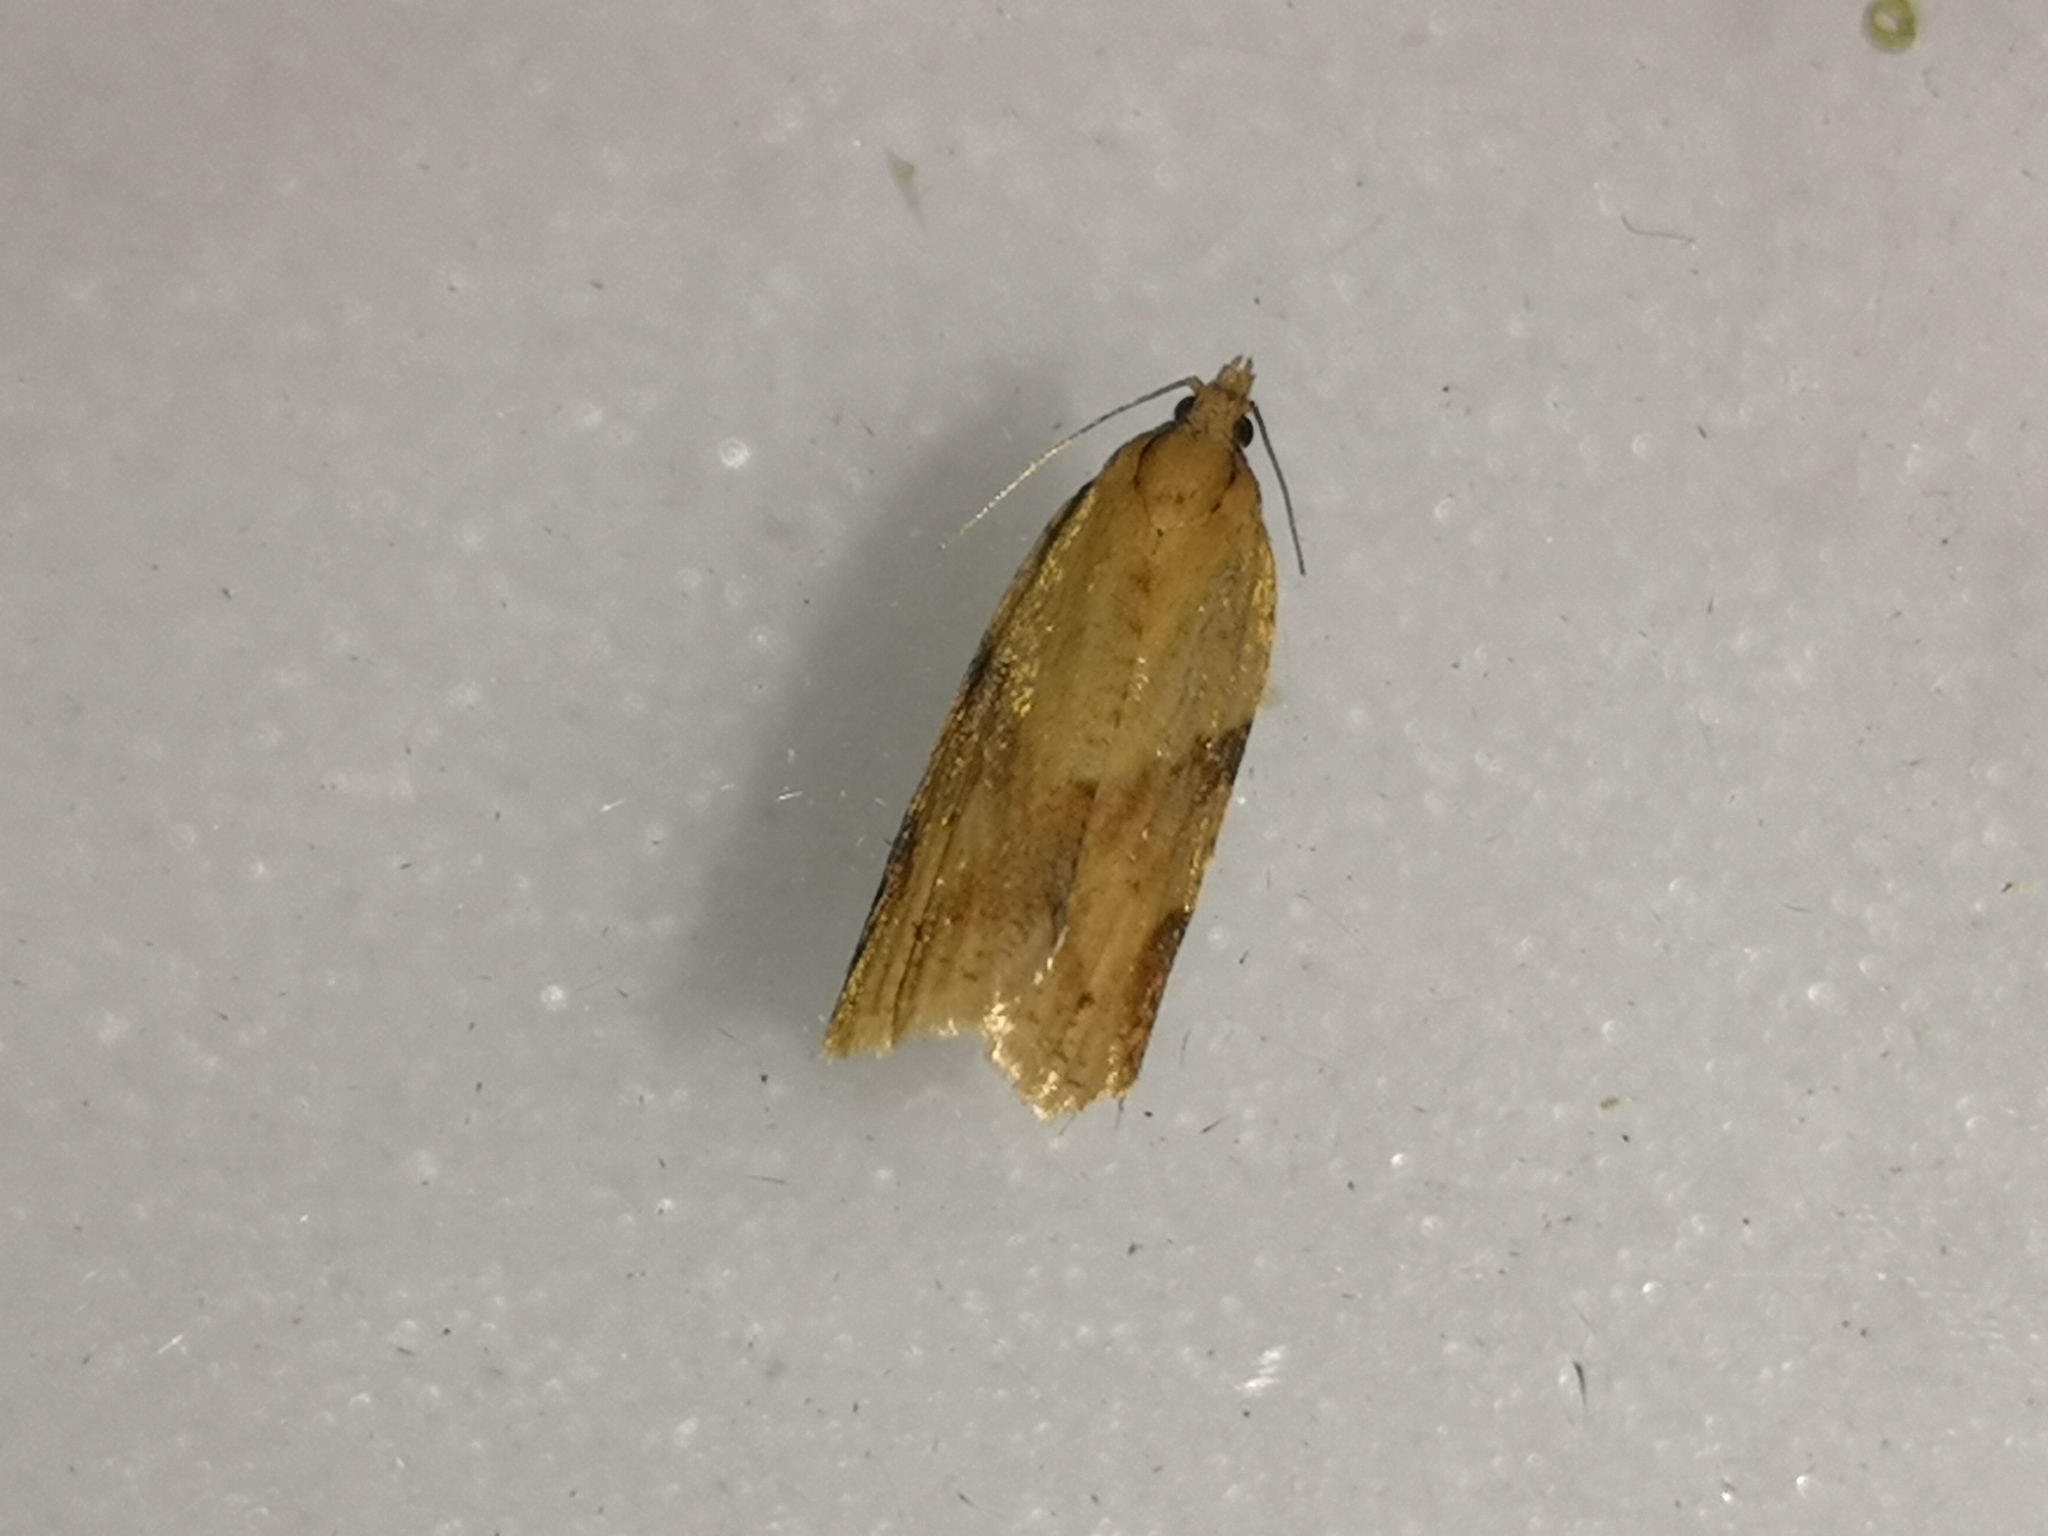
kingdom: Animalia
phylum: Arthropoda
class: Insecta
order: Lepidoptera
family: Tortricidae
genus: Clepsis
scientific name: Clepsis spectrana
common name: Cyclamen tortrix
